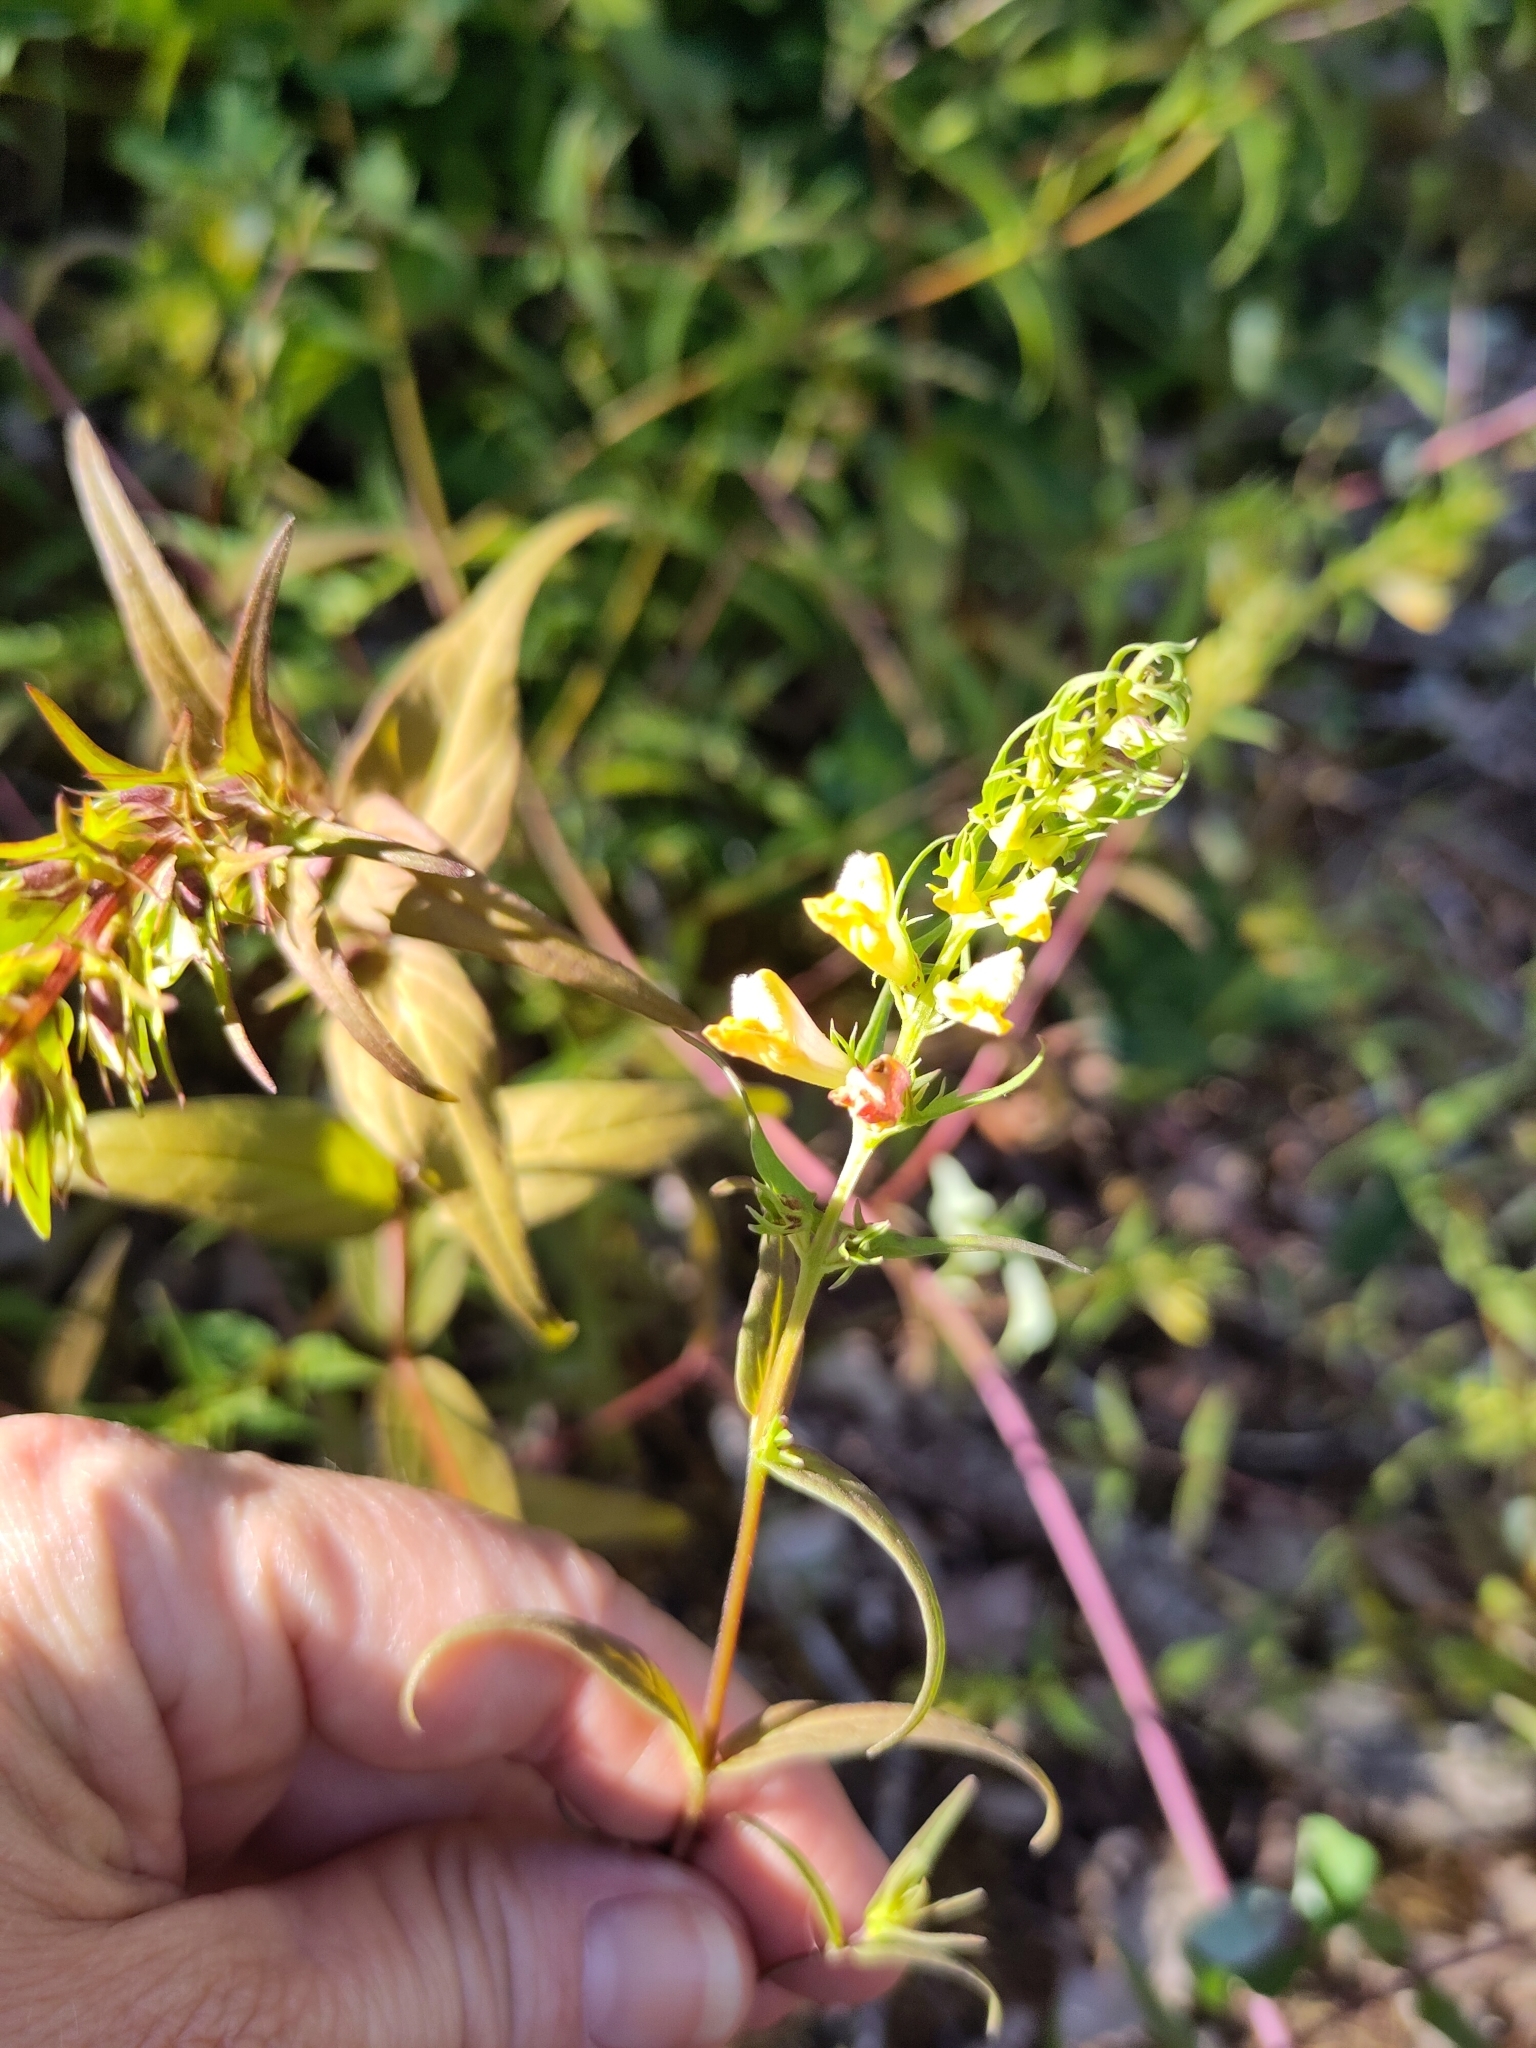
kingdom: Plantae
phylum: Tracheophyta
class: Magnoliopsida
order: Lamiales
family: Orobanchaceae
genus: Melampyrum
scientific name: Melampyrum pratense
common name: Common cow-wheat
